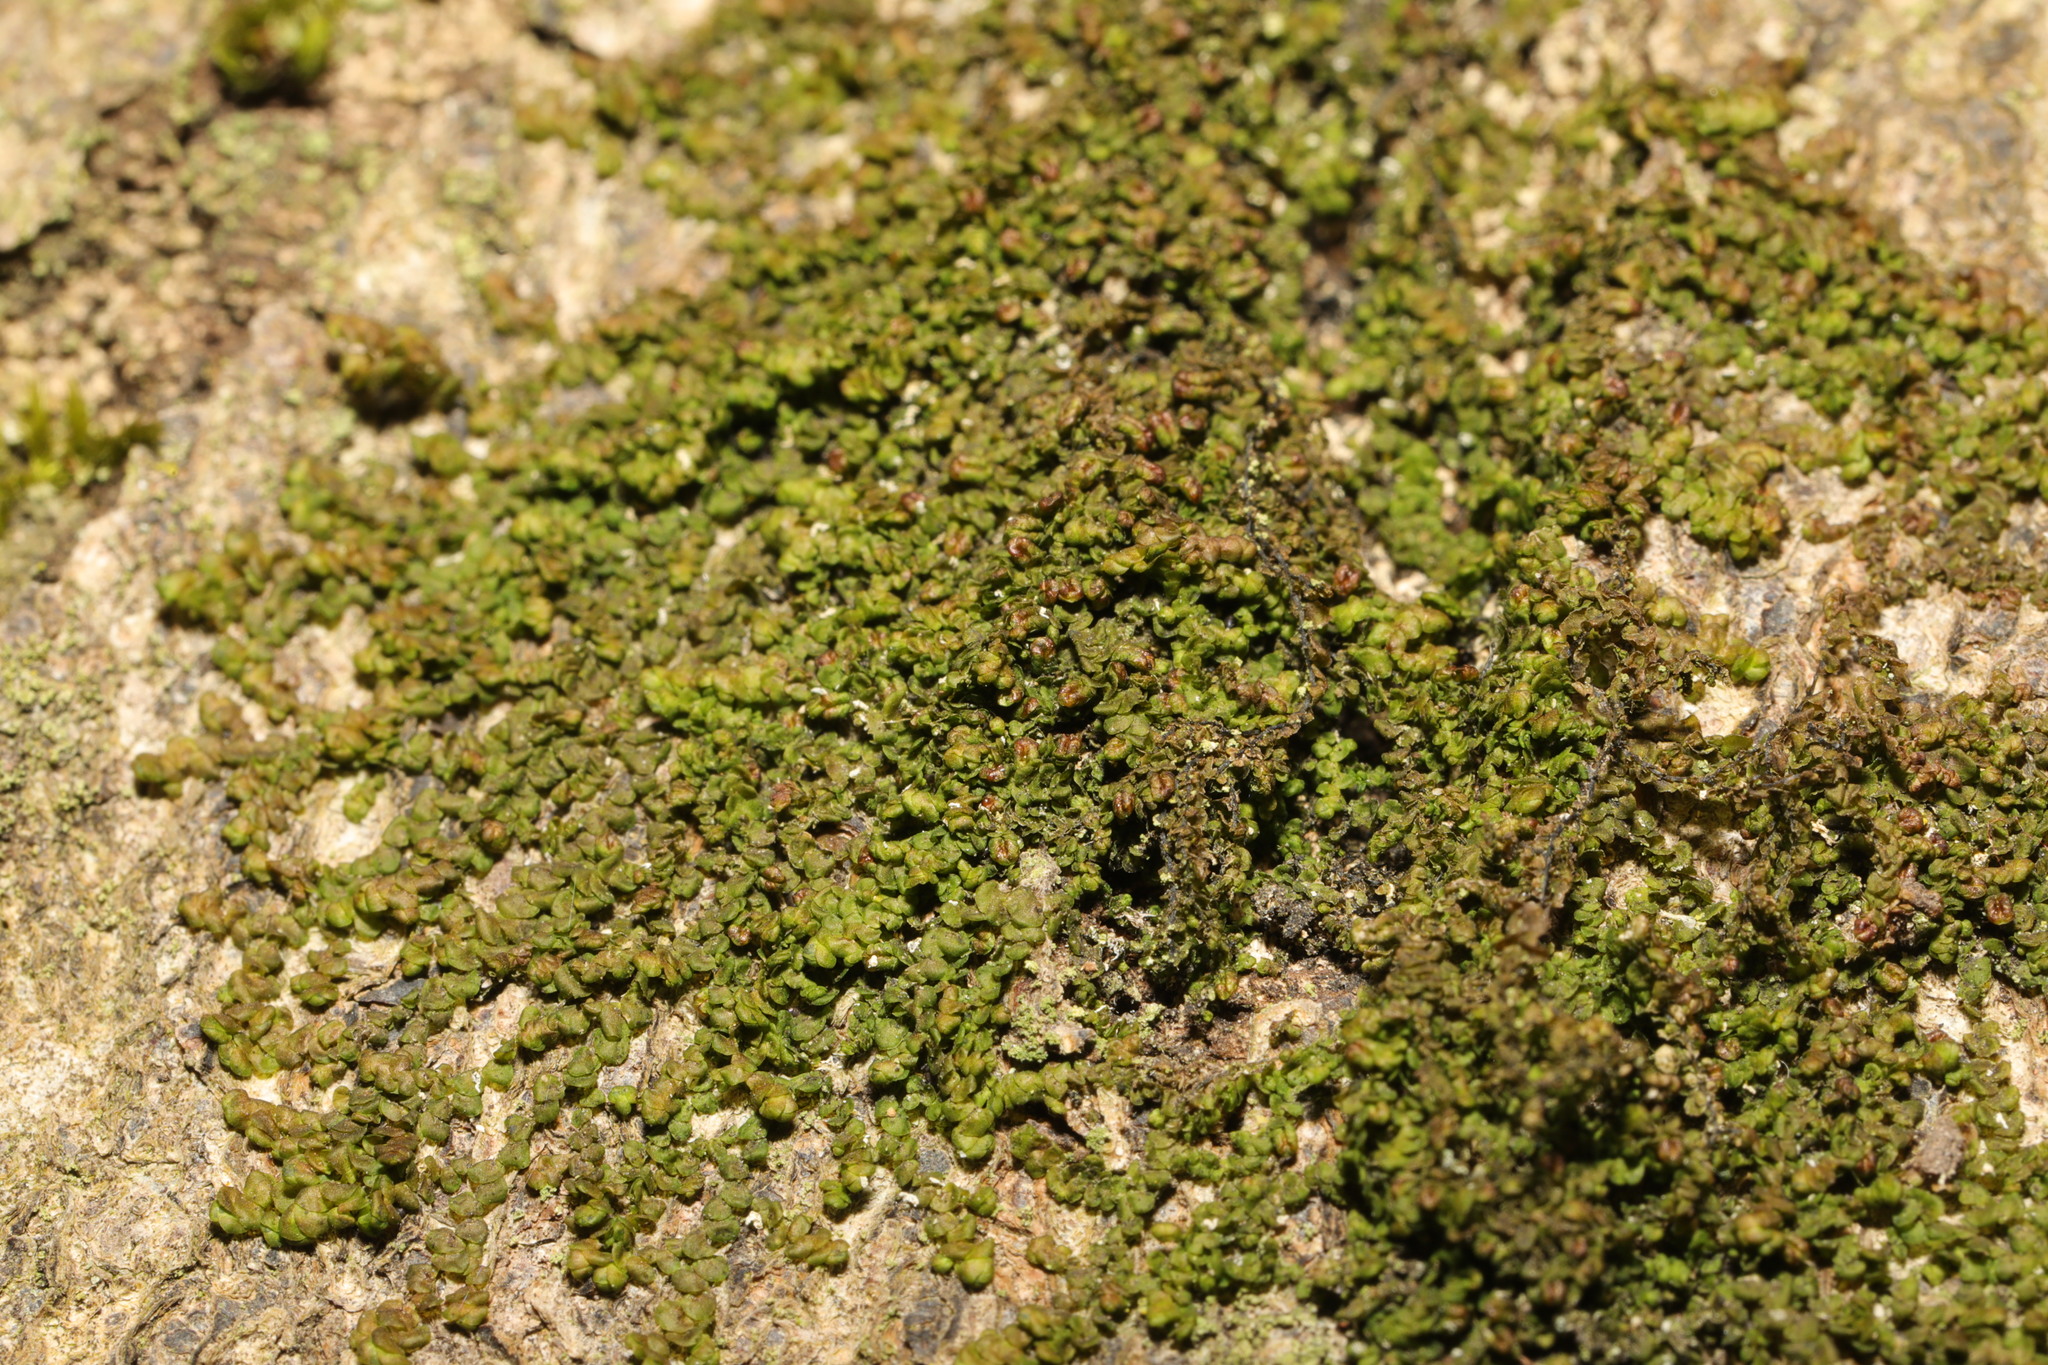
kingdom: Plantae
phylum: Marchantiophyta
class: Jungermanniopsida
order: Porellales
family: Frullaniaceae
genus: Frullania
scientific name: Frullania dilatata
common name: Dilated scalewort
